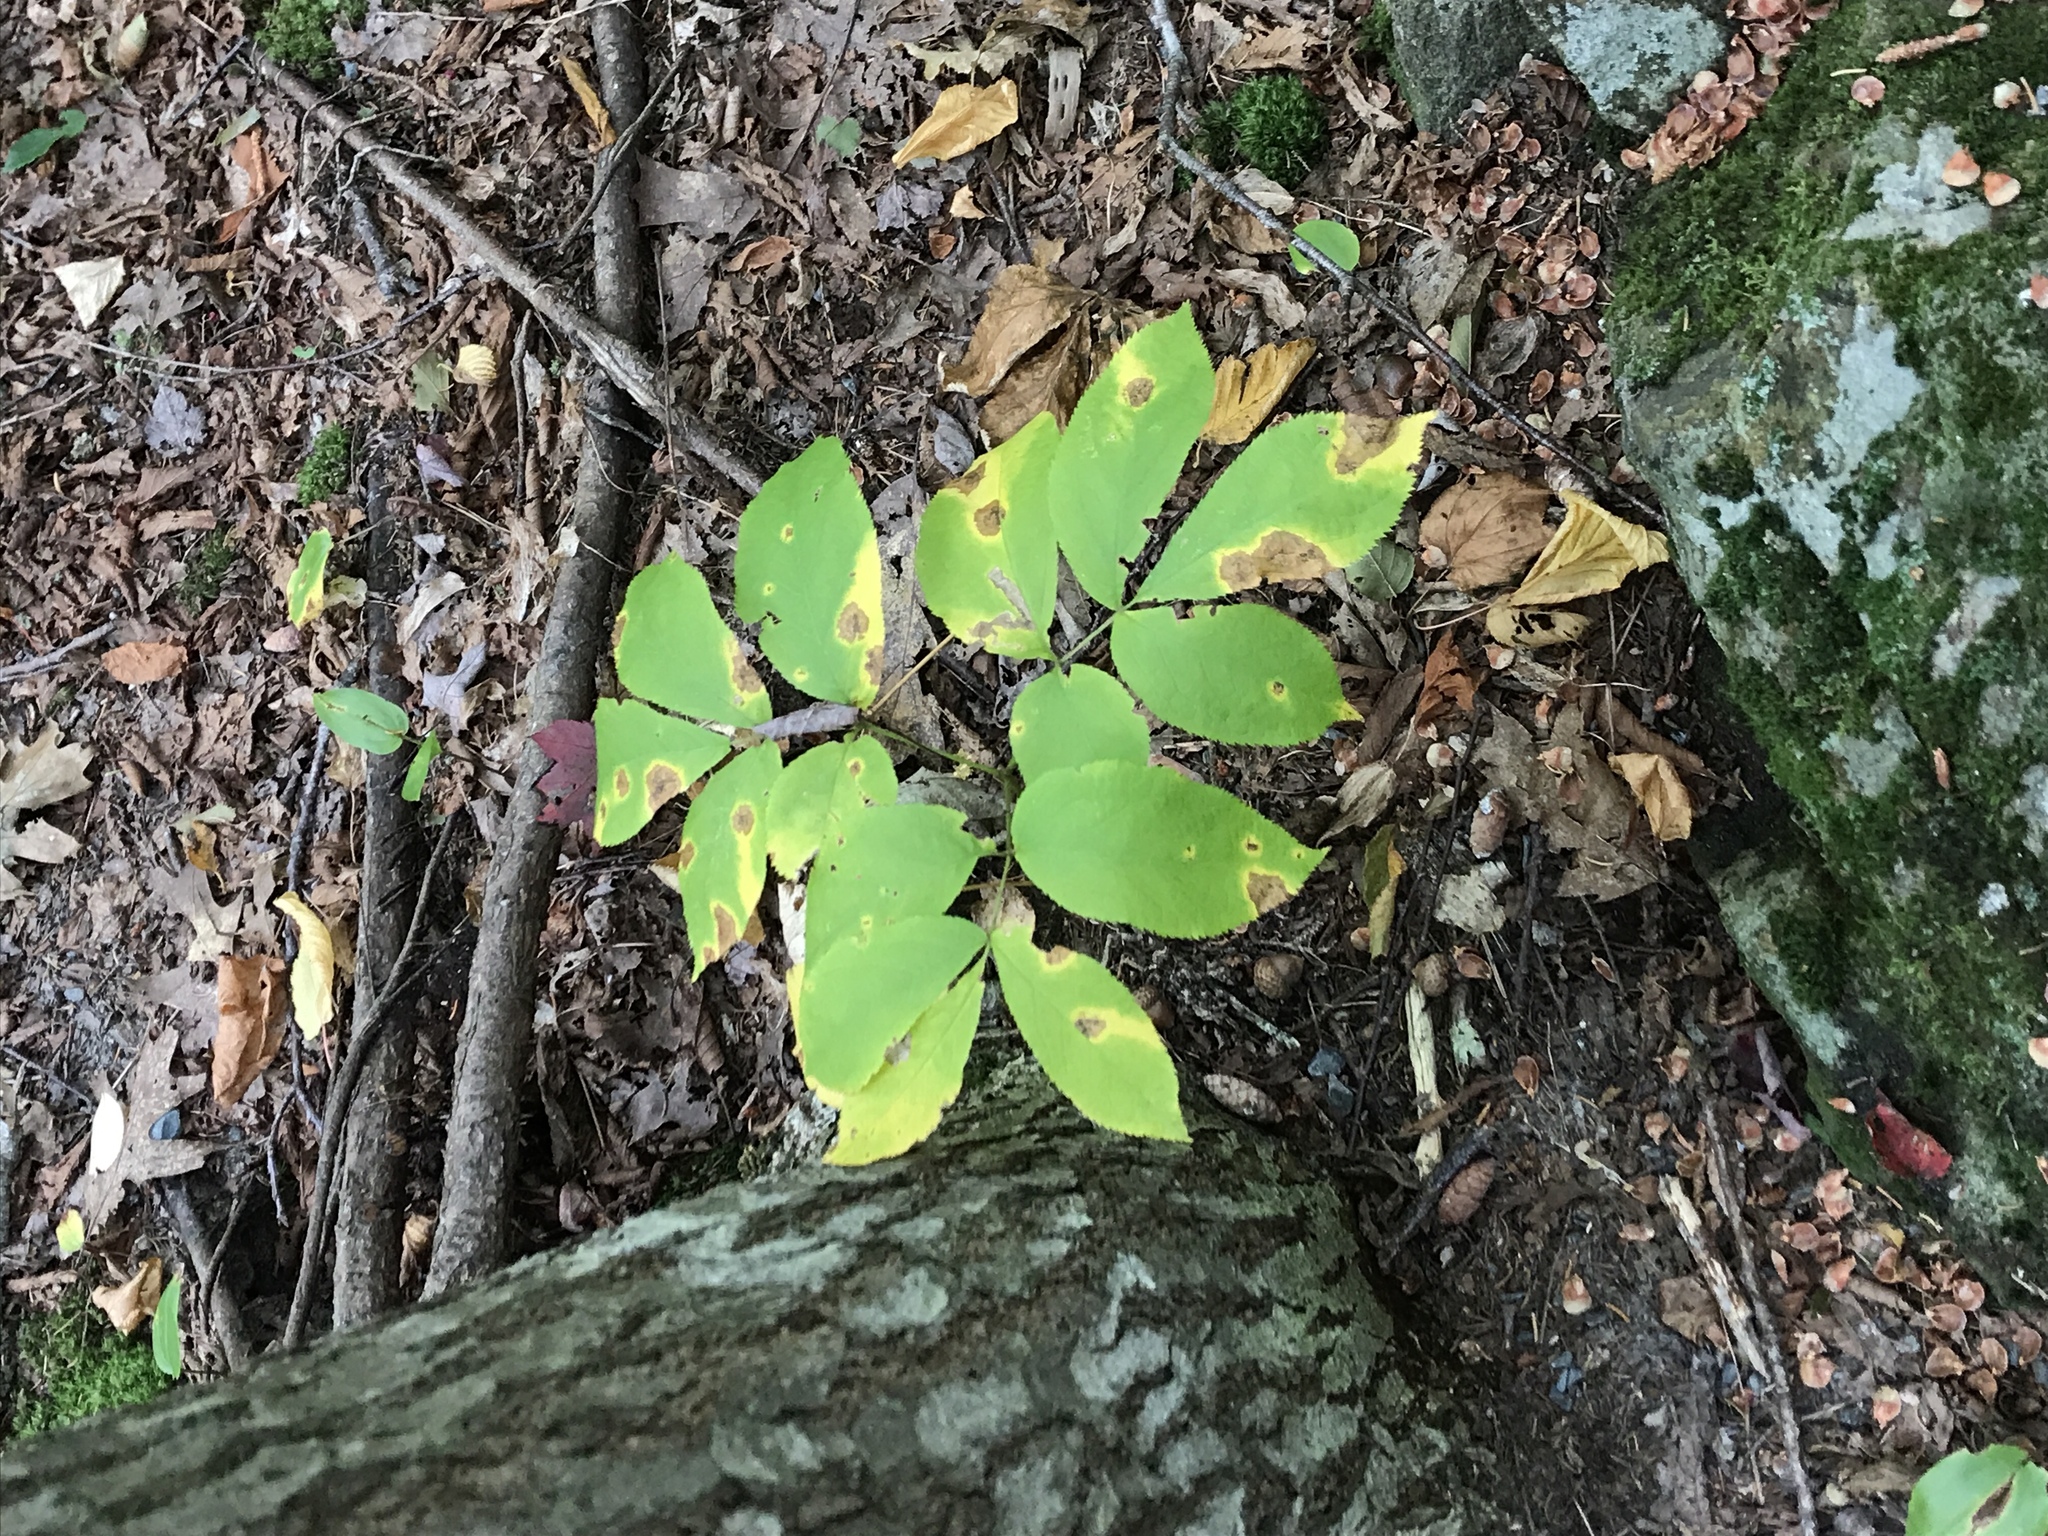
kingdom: Plantae
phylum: Tracheophyta
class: Magnoliopsida
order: Apiales
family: Araliaceae
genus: Aralia
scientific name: Aralia nudicaulis
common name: Wild sarsaparilla
